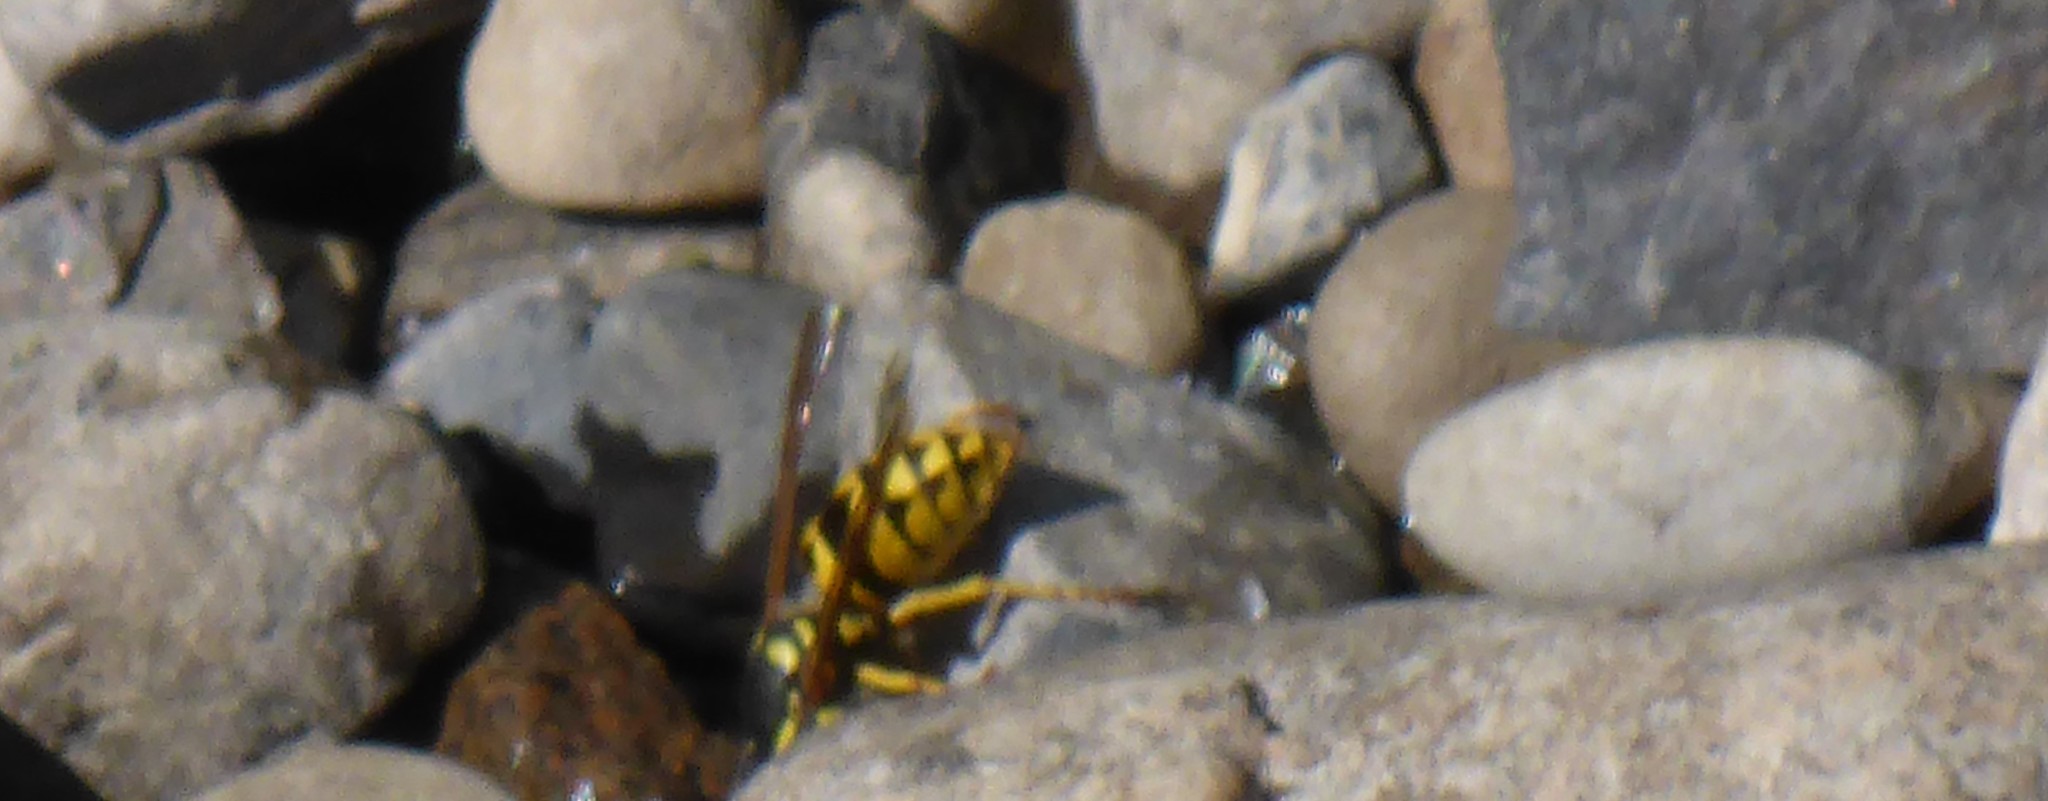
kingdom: Animalia
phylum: Arthropoda
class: Insecta
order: Hymenoptera
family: Vespidae
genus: Vespula
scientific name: Vespula
